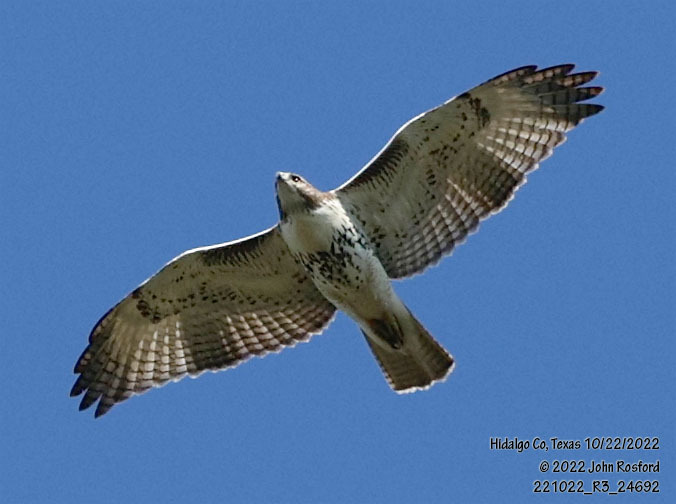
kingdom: Animalia
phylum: Chordata
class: Aves
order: Accipitriformes
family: Accipitridae
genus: Buteo
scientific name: Buteo jamaicensis
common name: Red-tailed hawk
